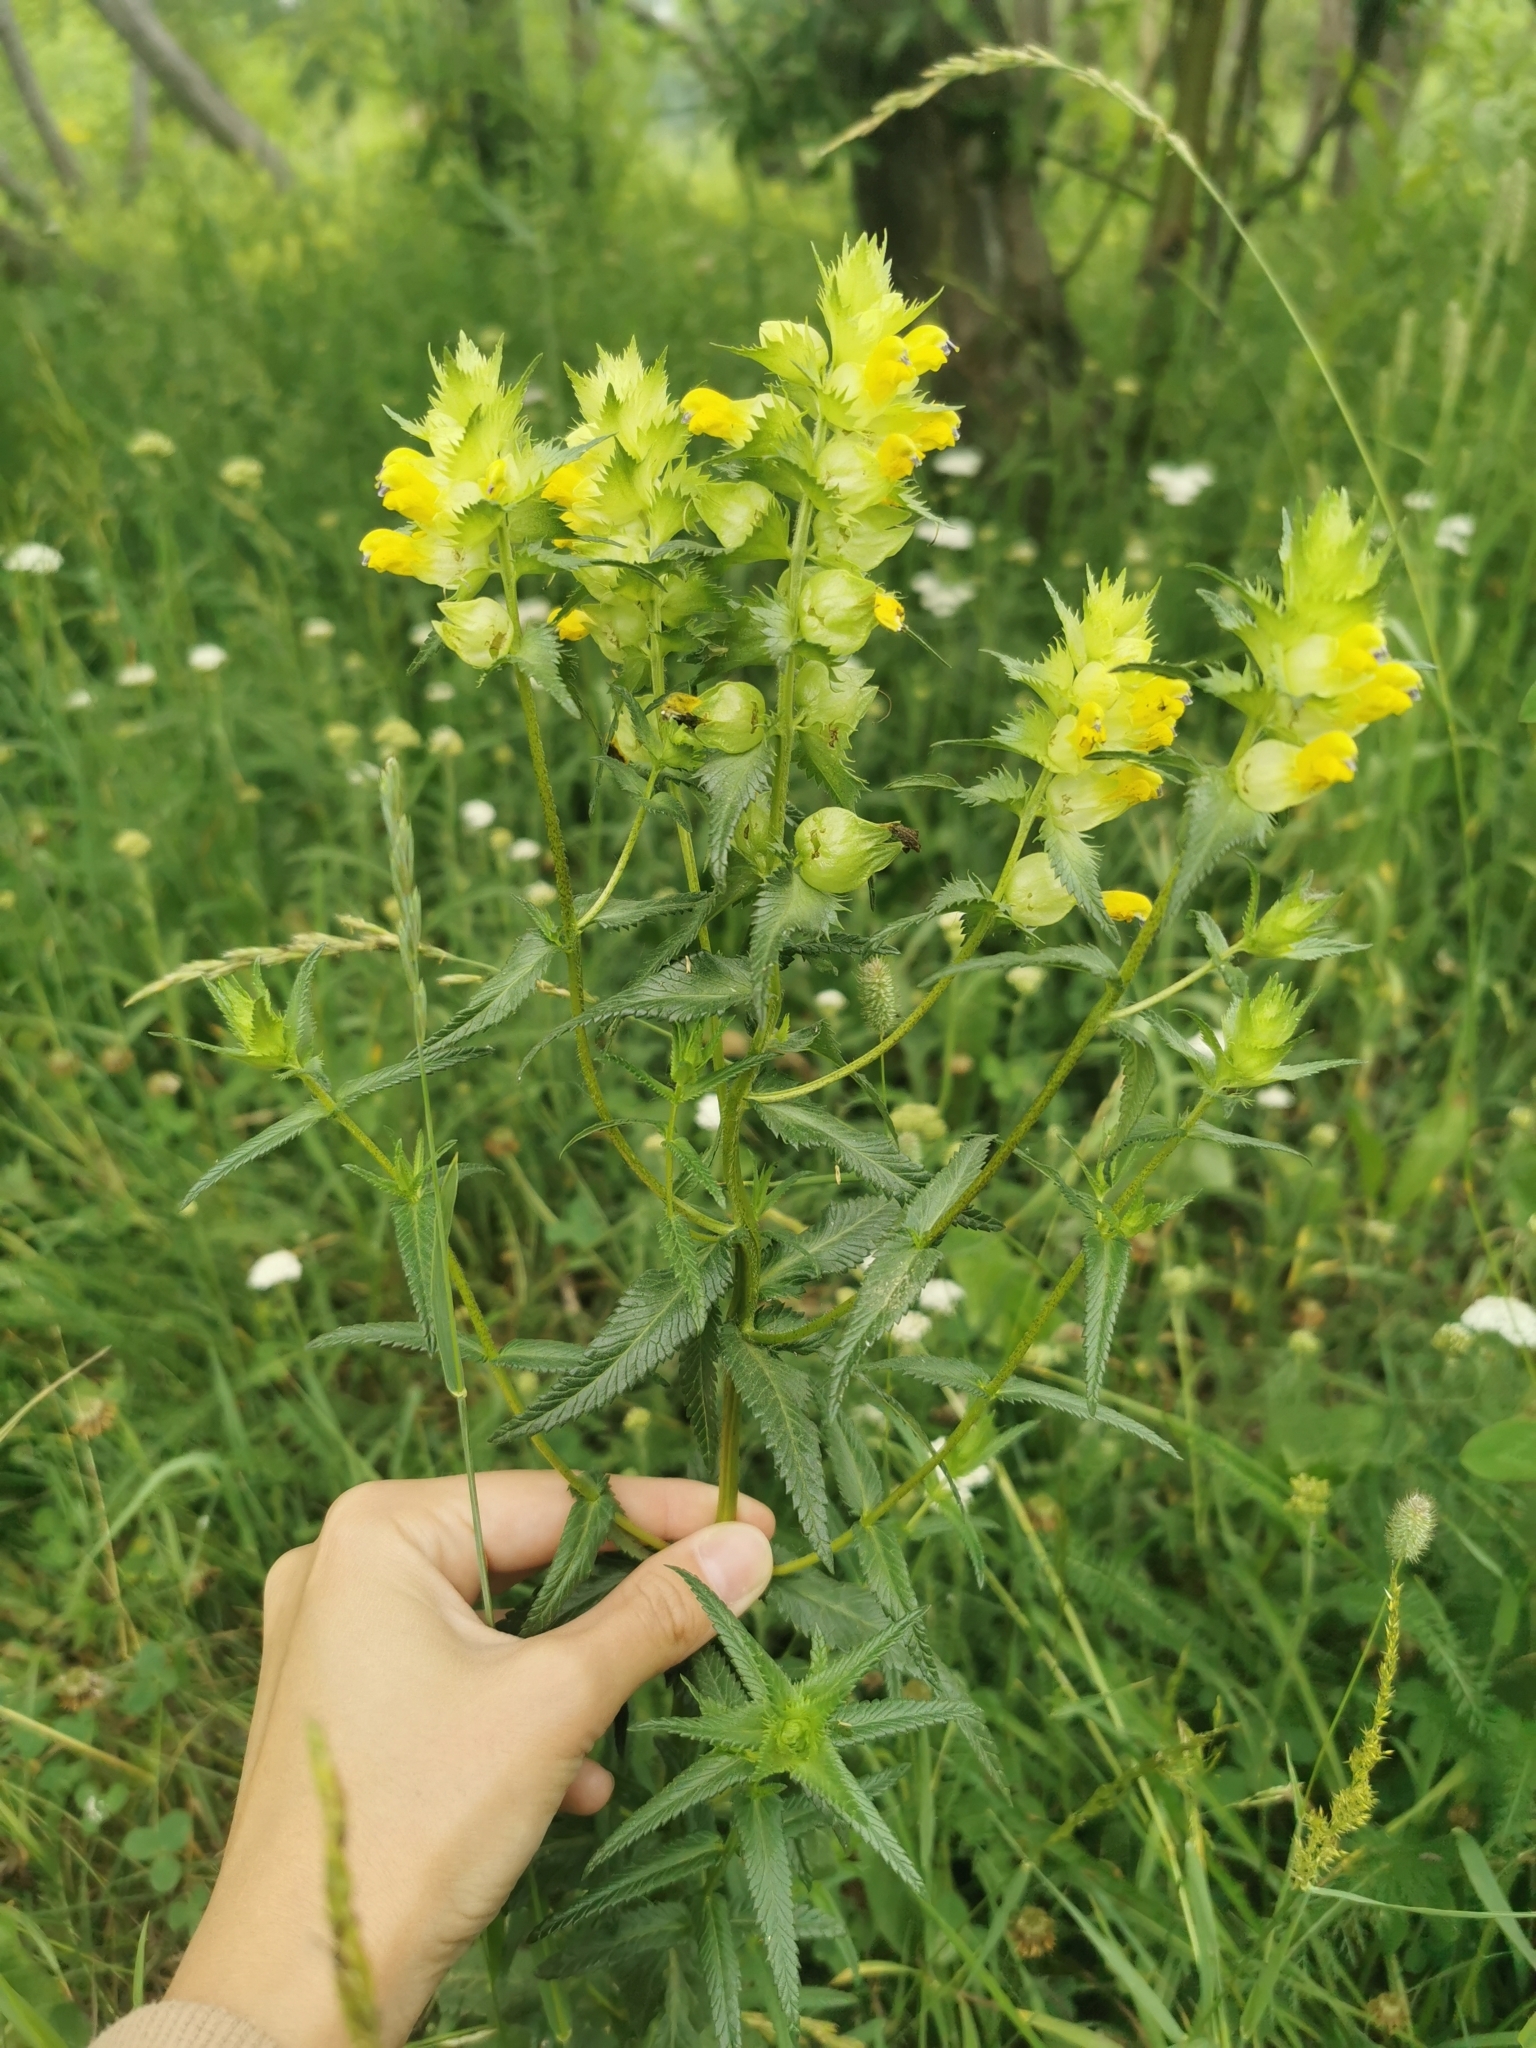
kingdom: Plantae
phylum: Tracheophyta
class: Magnoliopsida
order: Lamiales
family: Orobanchaceae
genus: Rhinanthus
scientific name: Rhinanthus serotinus
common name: Late-flowering yellow rattle
